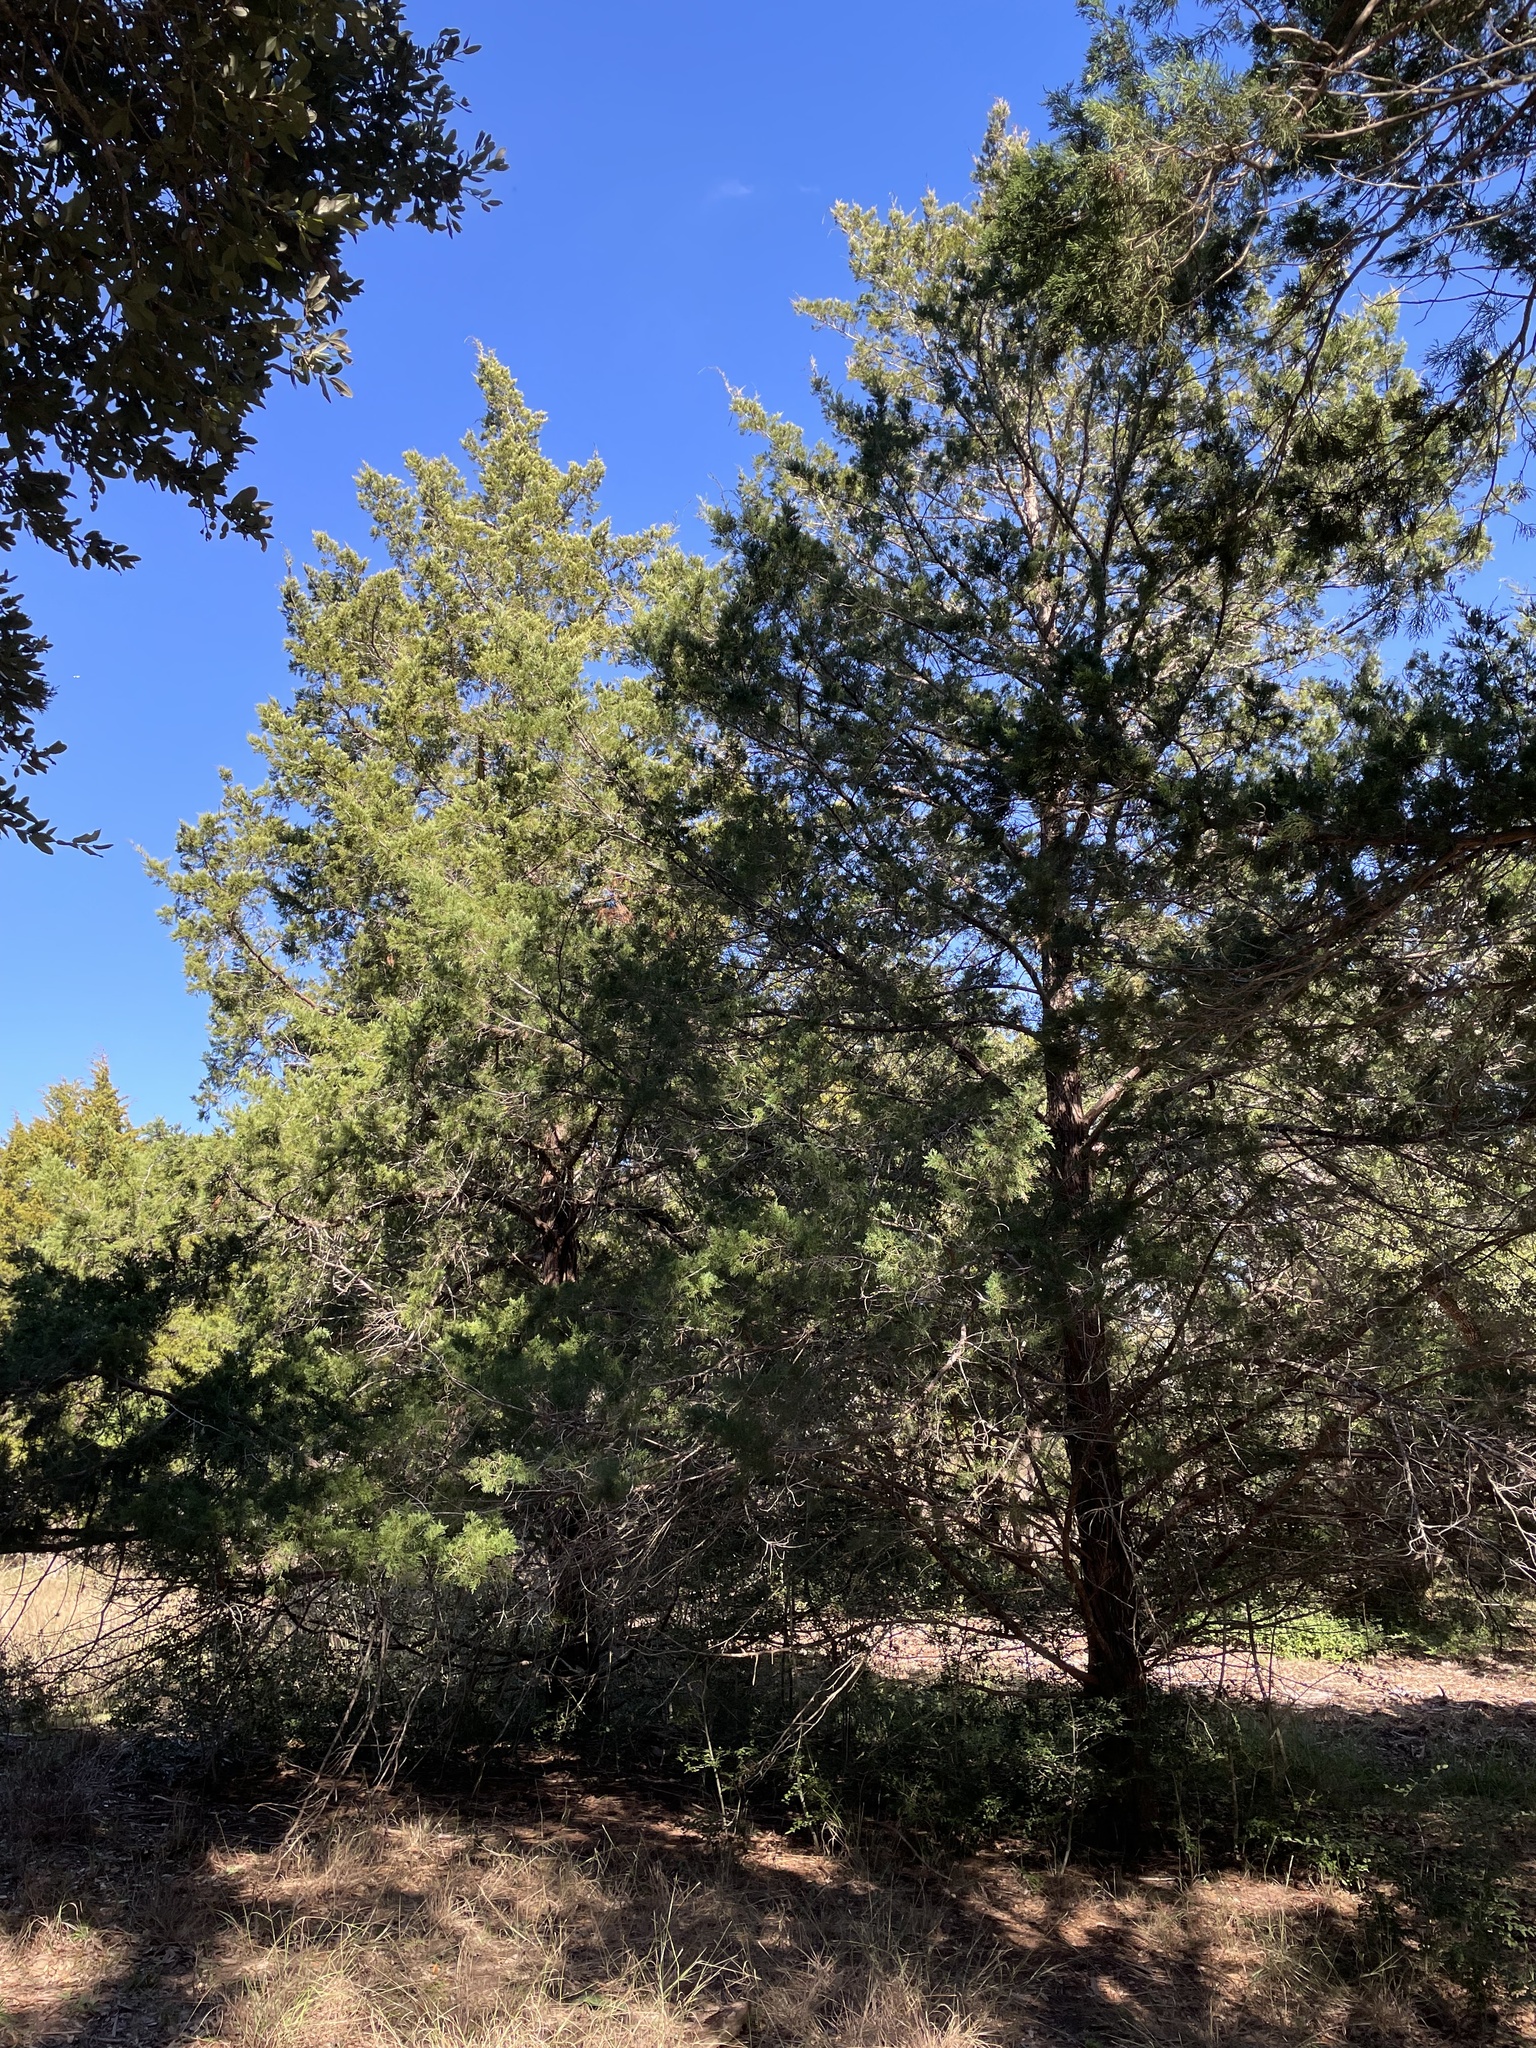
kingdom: Plantae
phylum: Tracheophyta
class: Pinopsida
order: Pinales
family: Cupressaceae
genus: Juniperus
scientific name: Juniperus virginiana
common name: Red juniper
